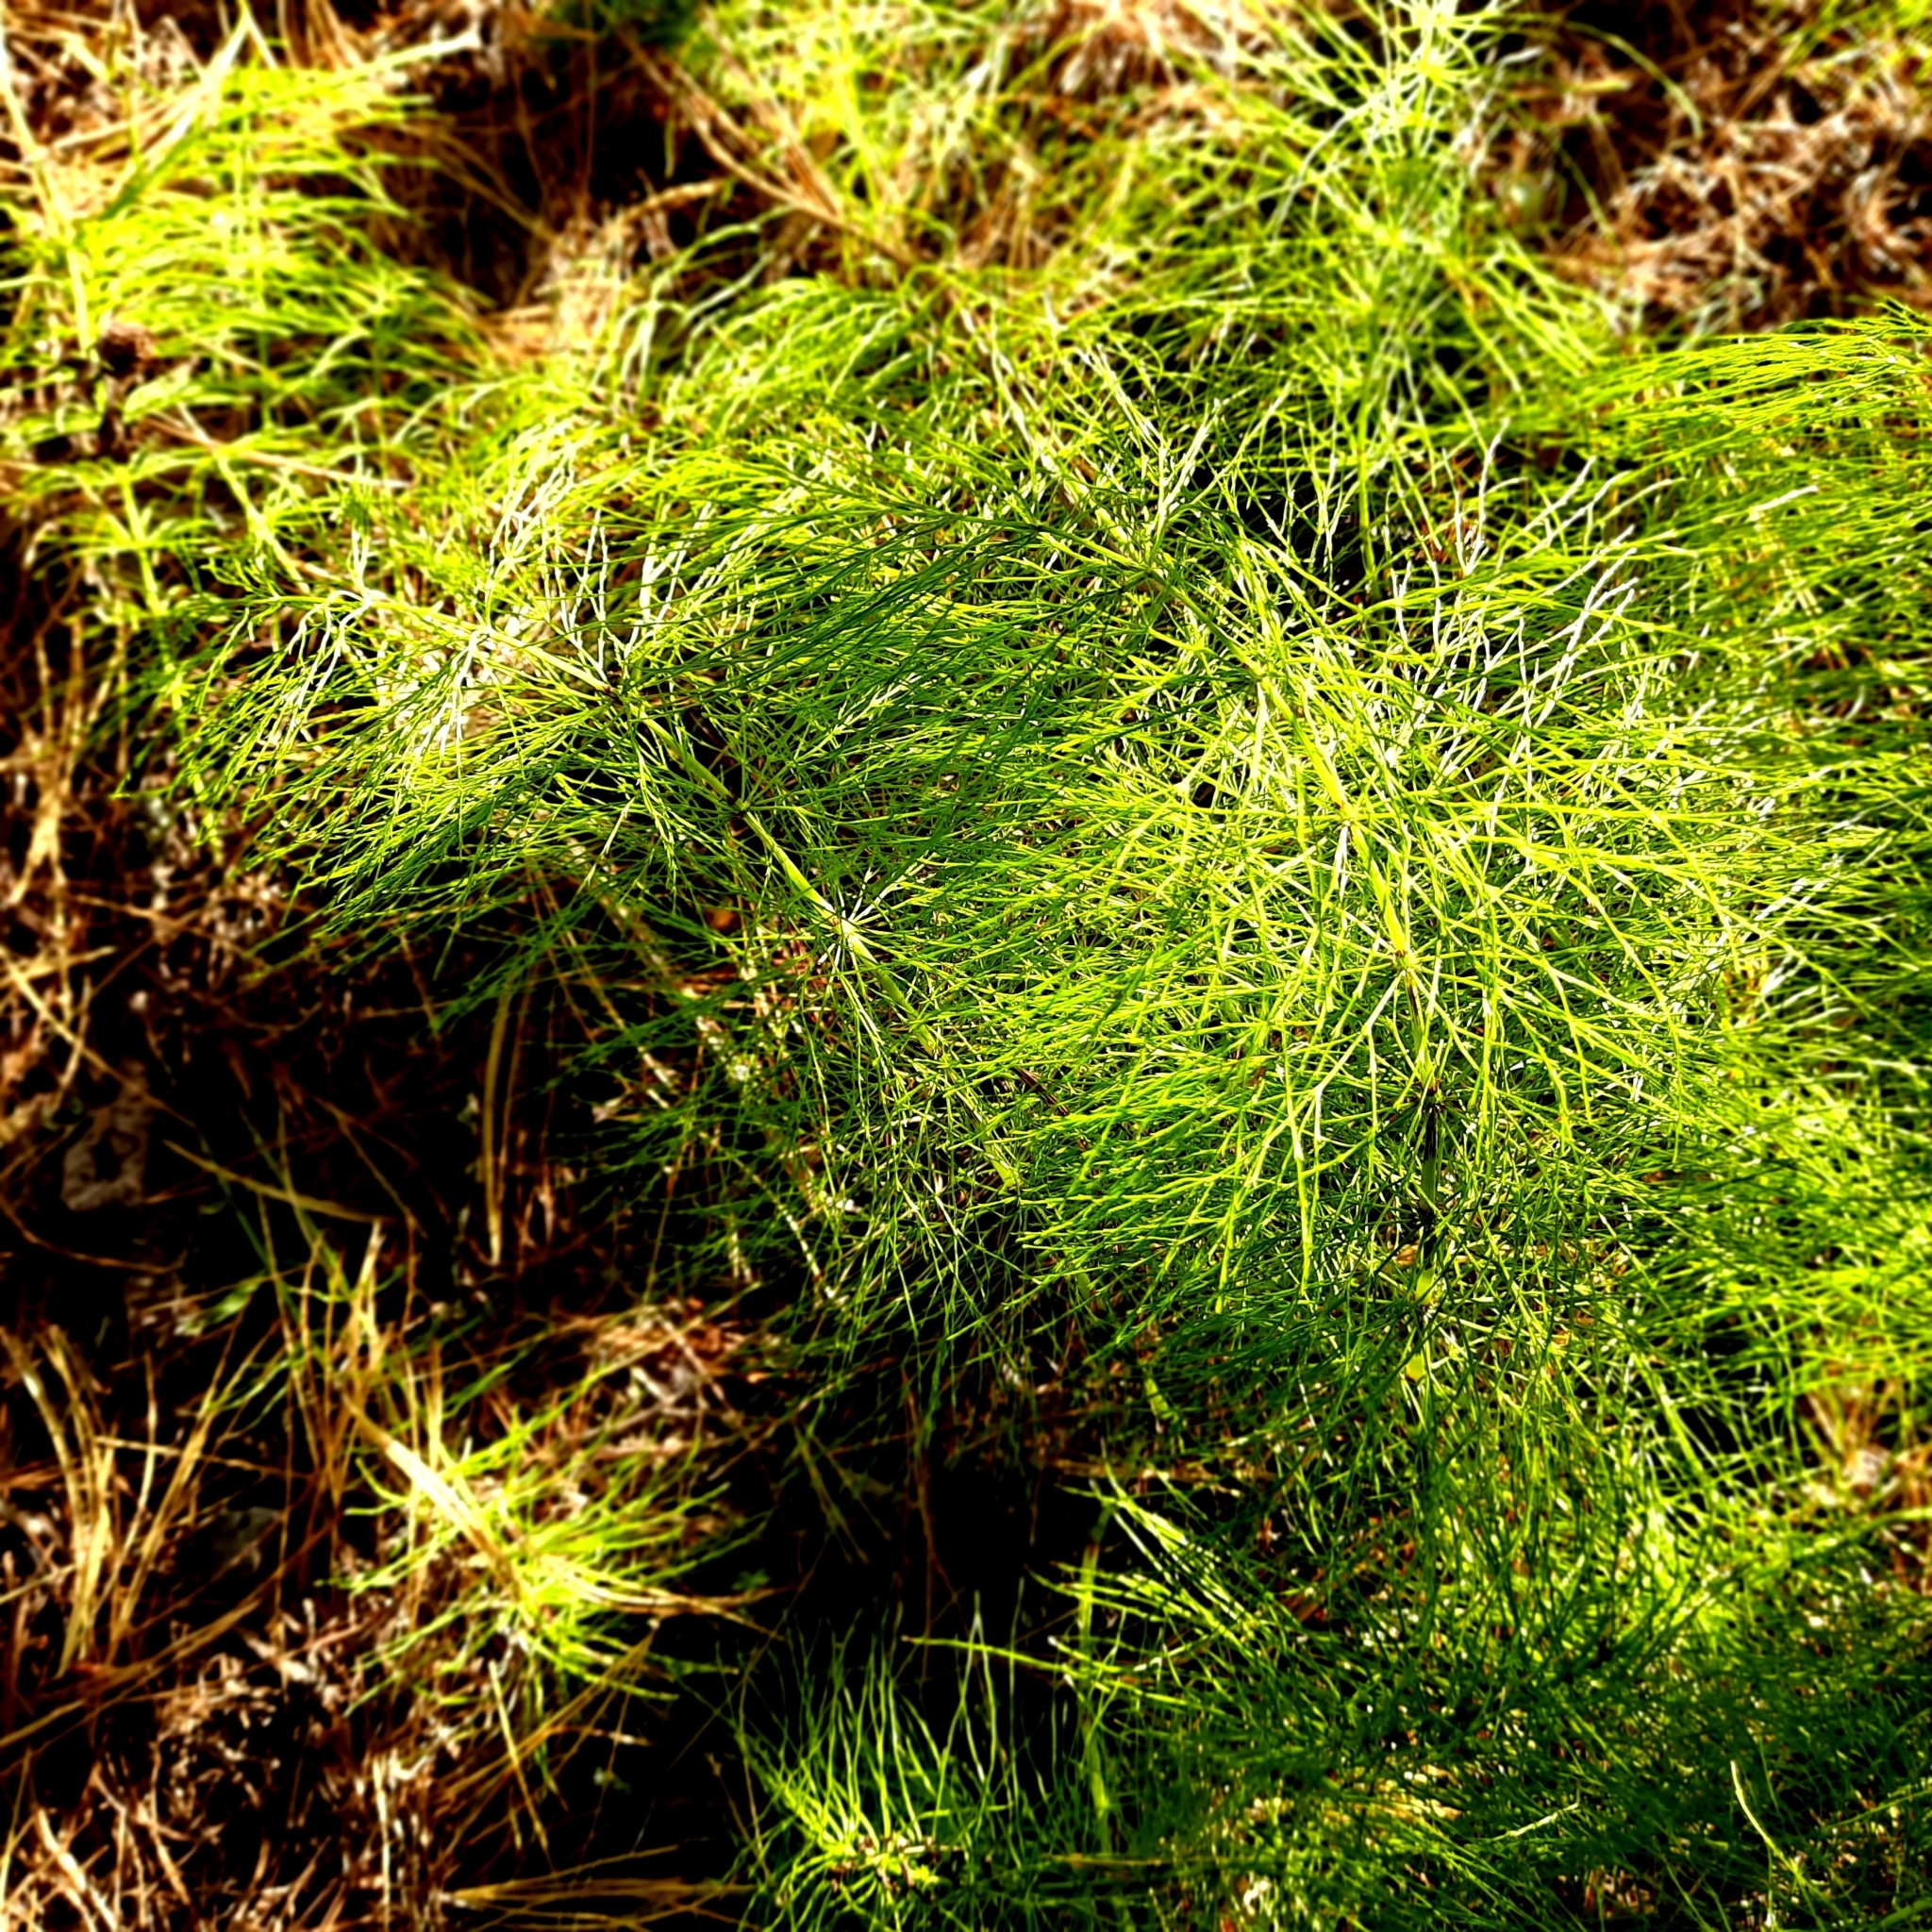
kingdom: Plantae
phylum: Tracheophyta
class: Polypodiopsida
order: Equisetales
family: Equisetaceae
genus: Equisetum
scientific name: Equisetum sylvaticum
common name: Wood horsetail
